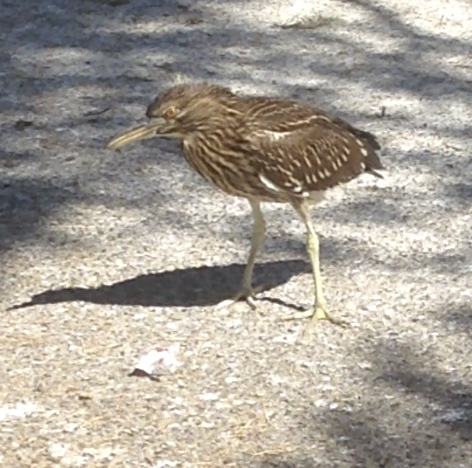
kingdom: Animalia
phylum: Chordata
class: Aves
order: Pelecaniformes
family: Ardeidae
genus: Nycticorax
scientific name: Nycticorax nycticorax
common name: Black-crowned night heron
